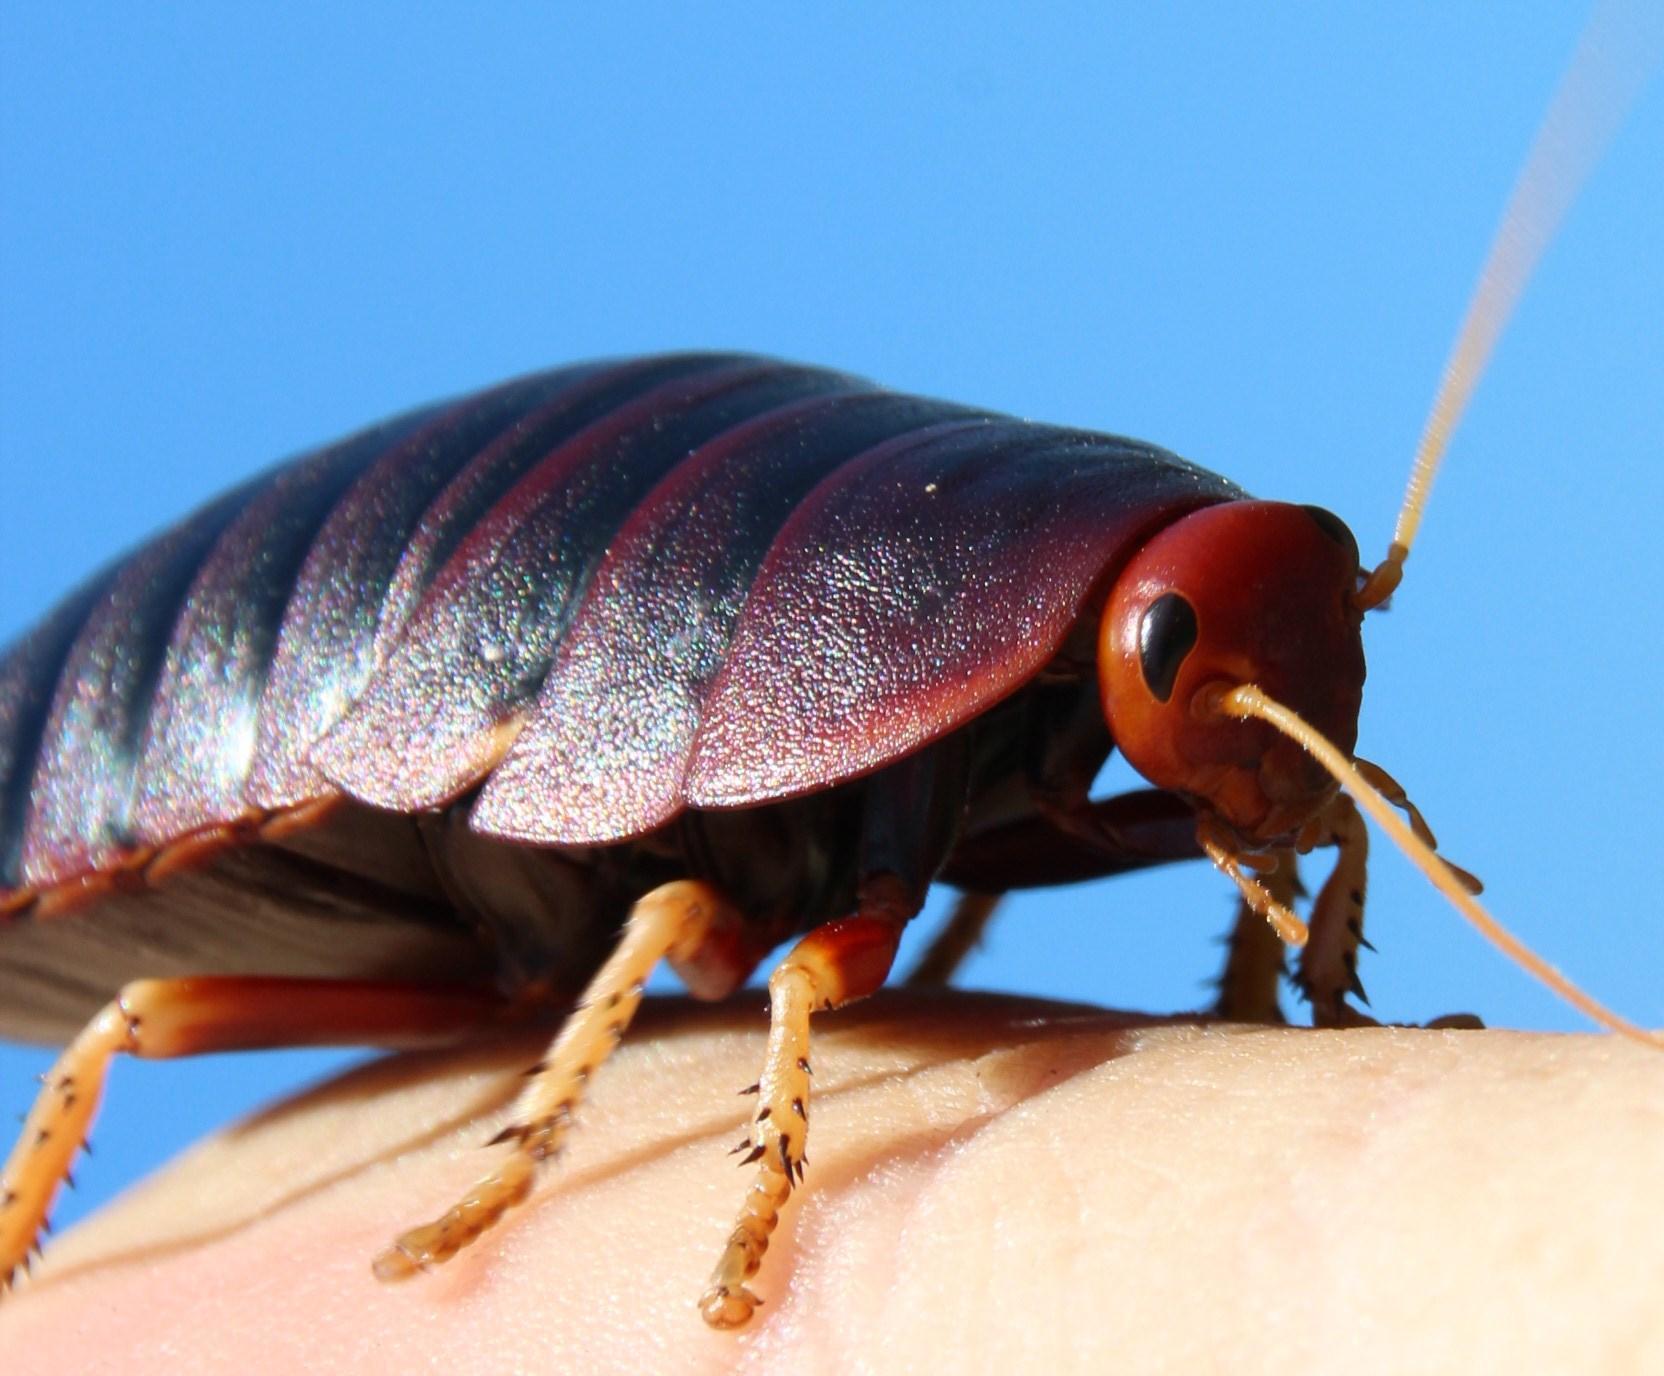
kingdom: Animalia
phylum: Arthropoda
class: Insecta
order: Blattodea
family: Blaberidae
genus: Aptera
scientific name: Aptera fusca
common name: Cape mountain cockroach
